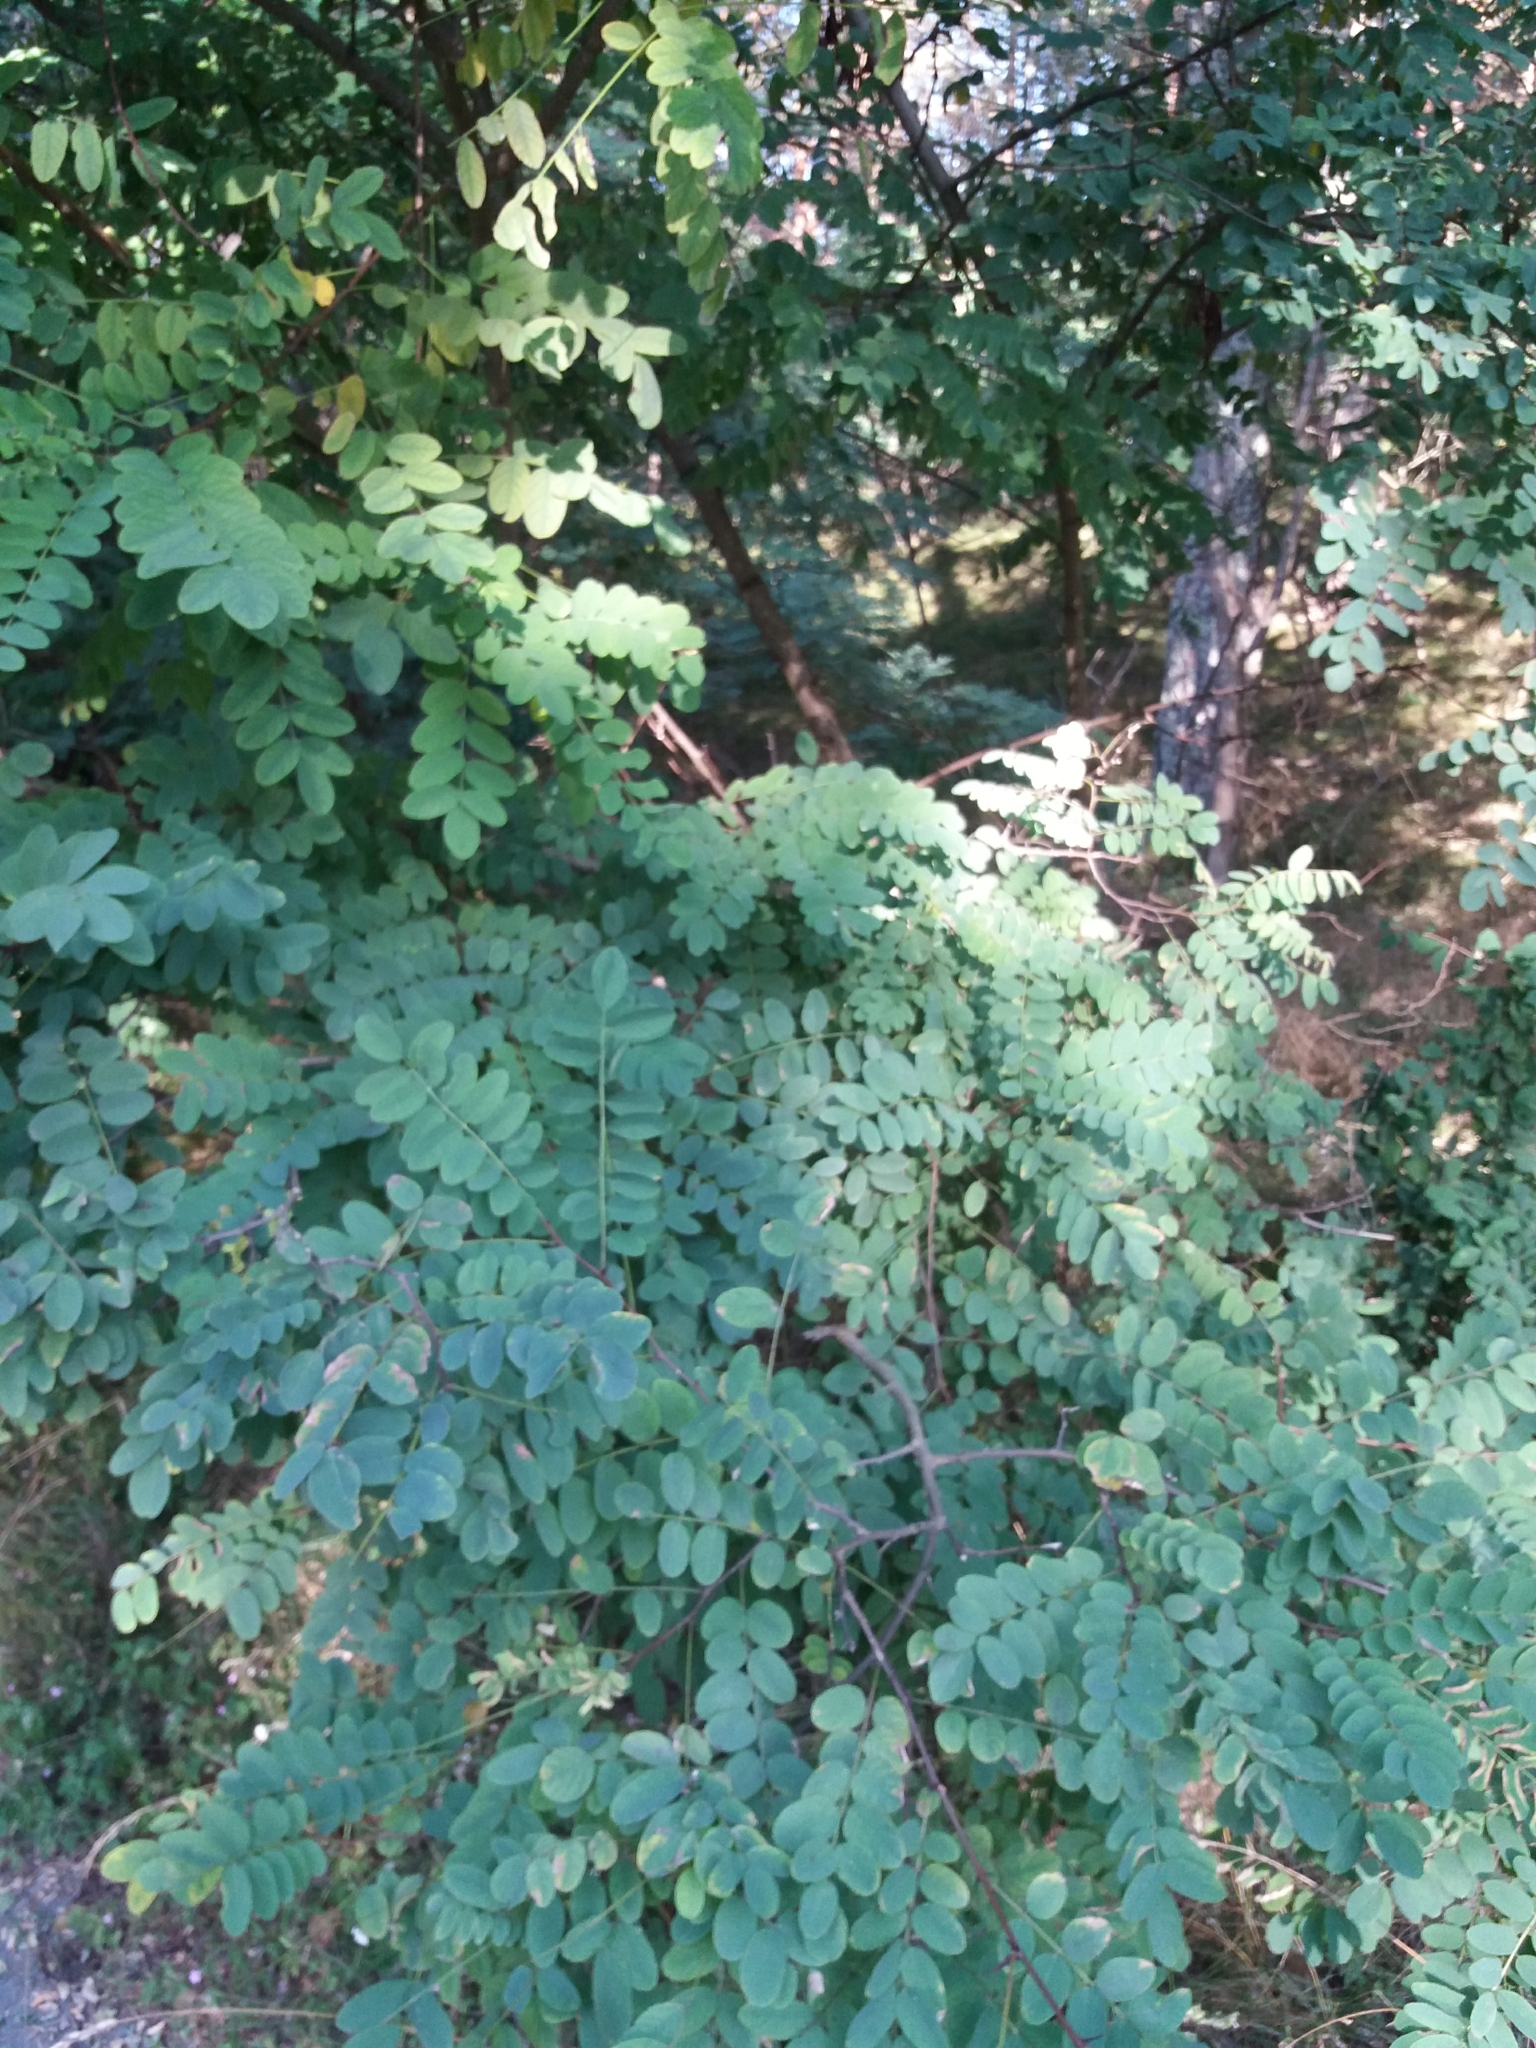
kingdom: Plantae
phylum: Tracheophyta
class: Magnoliopsida
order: Fabales
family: Fabaceae
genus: Robinia
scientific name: Robinia pseudoacacia
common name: Black locust
